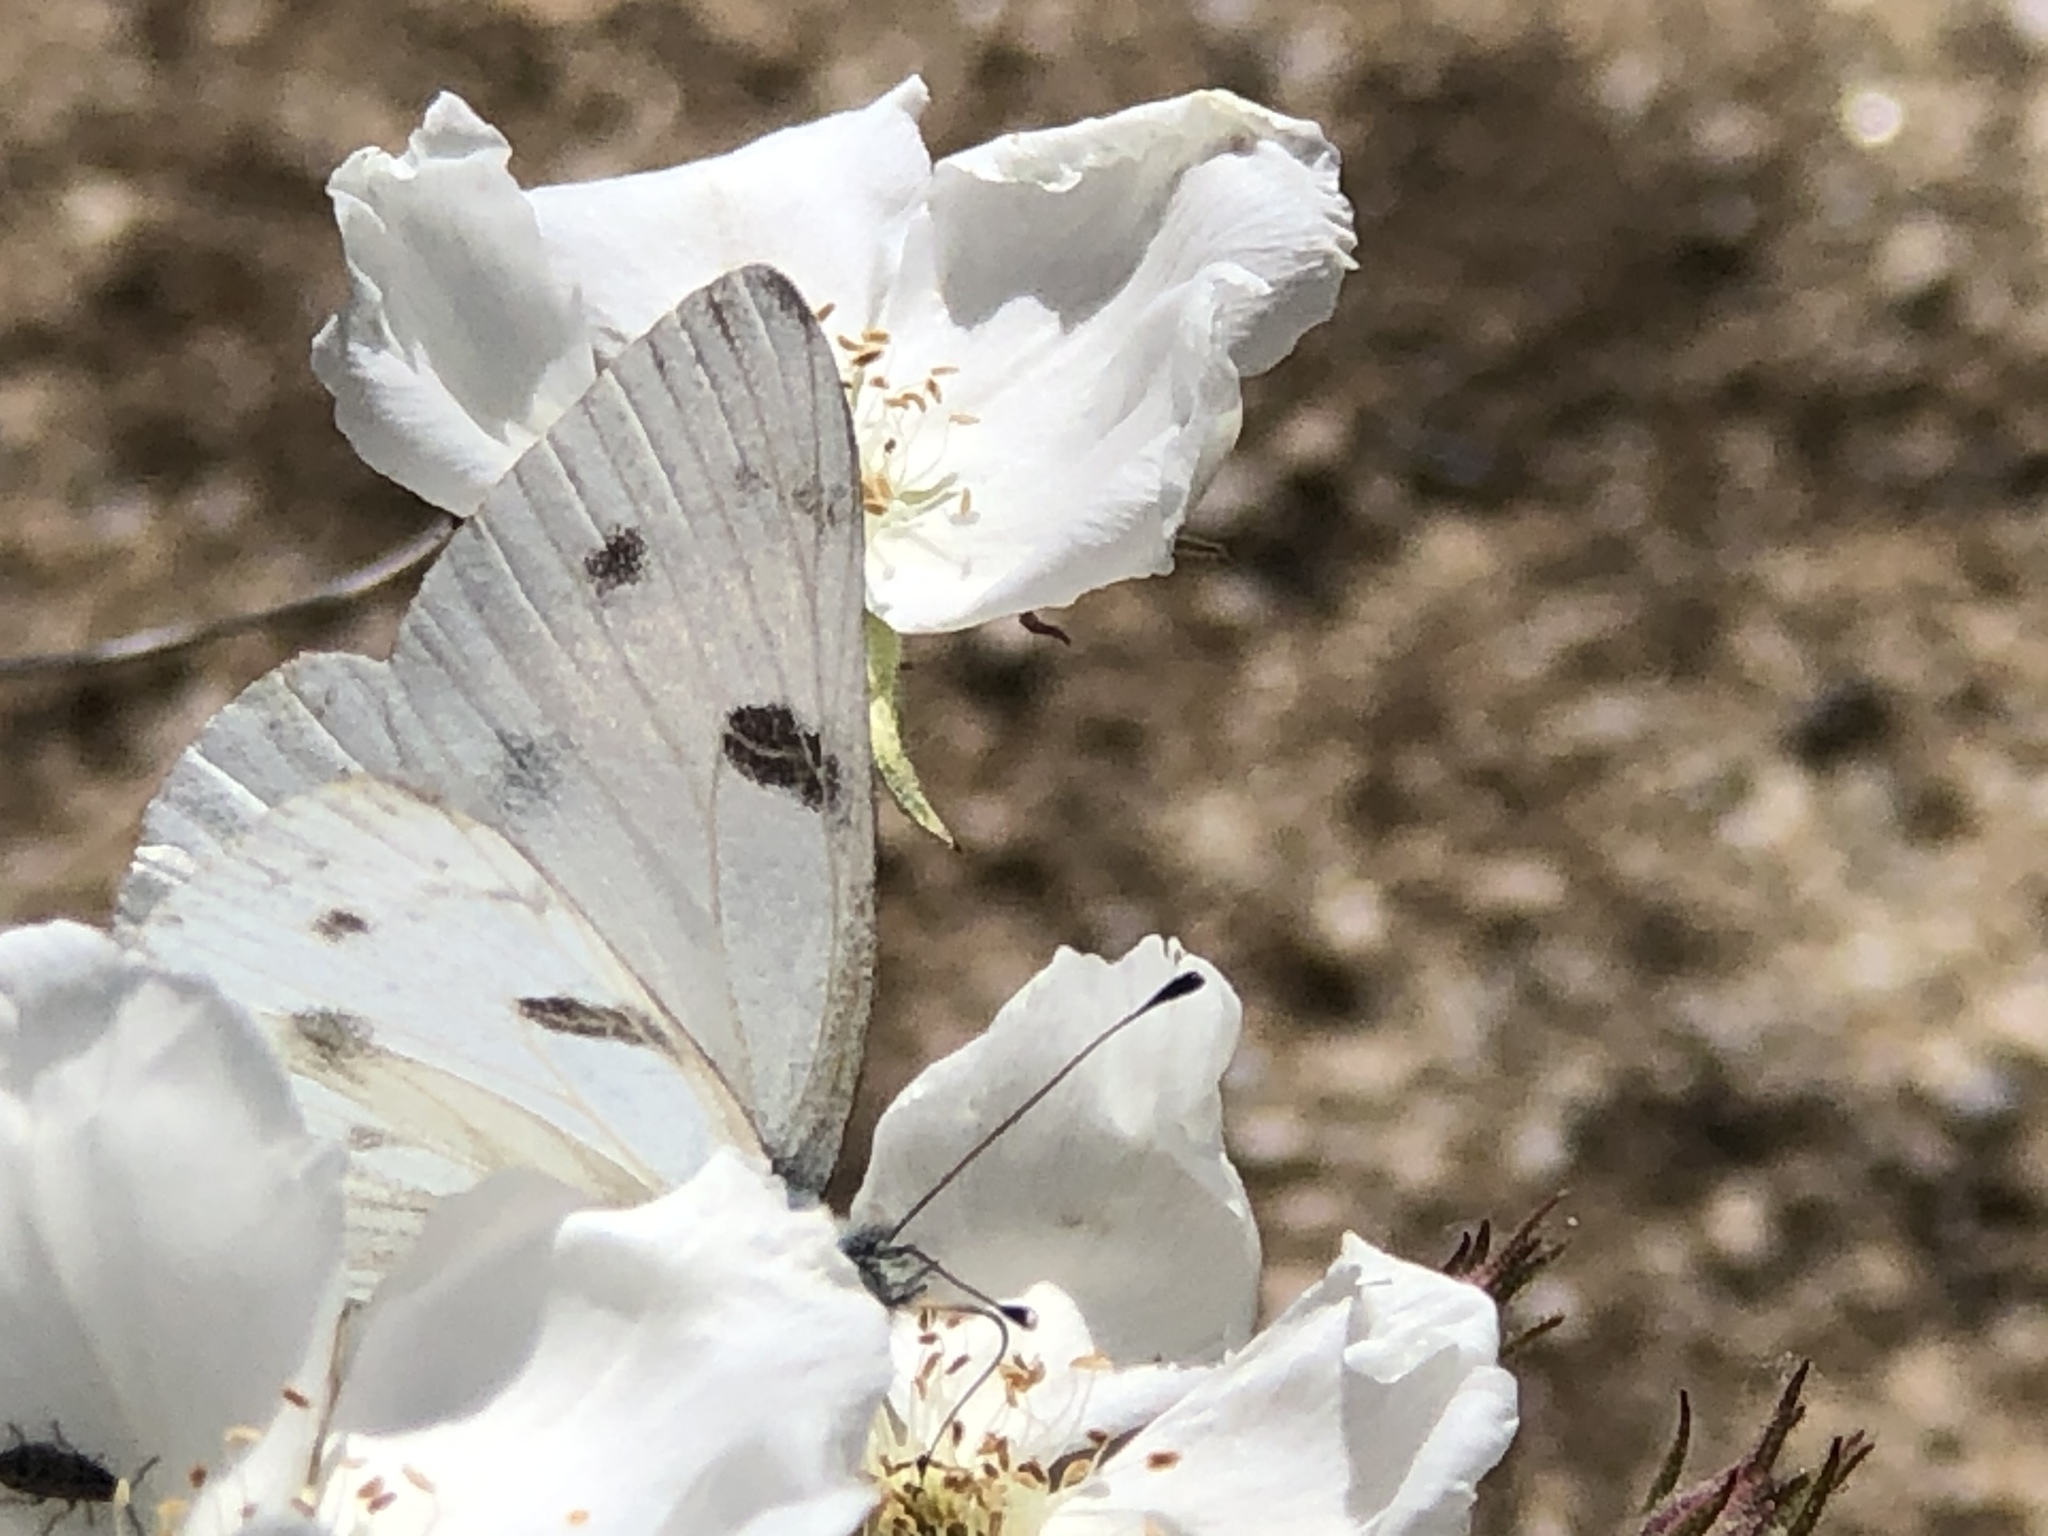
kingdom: Animalia
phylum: Arthropoda
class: Insecta
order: Lepidoptera
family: Pieridae
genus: Pontia
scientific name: Pontia protodice
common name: Checkered white
